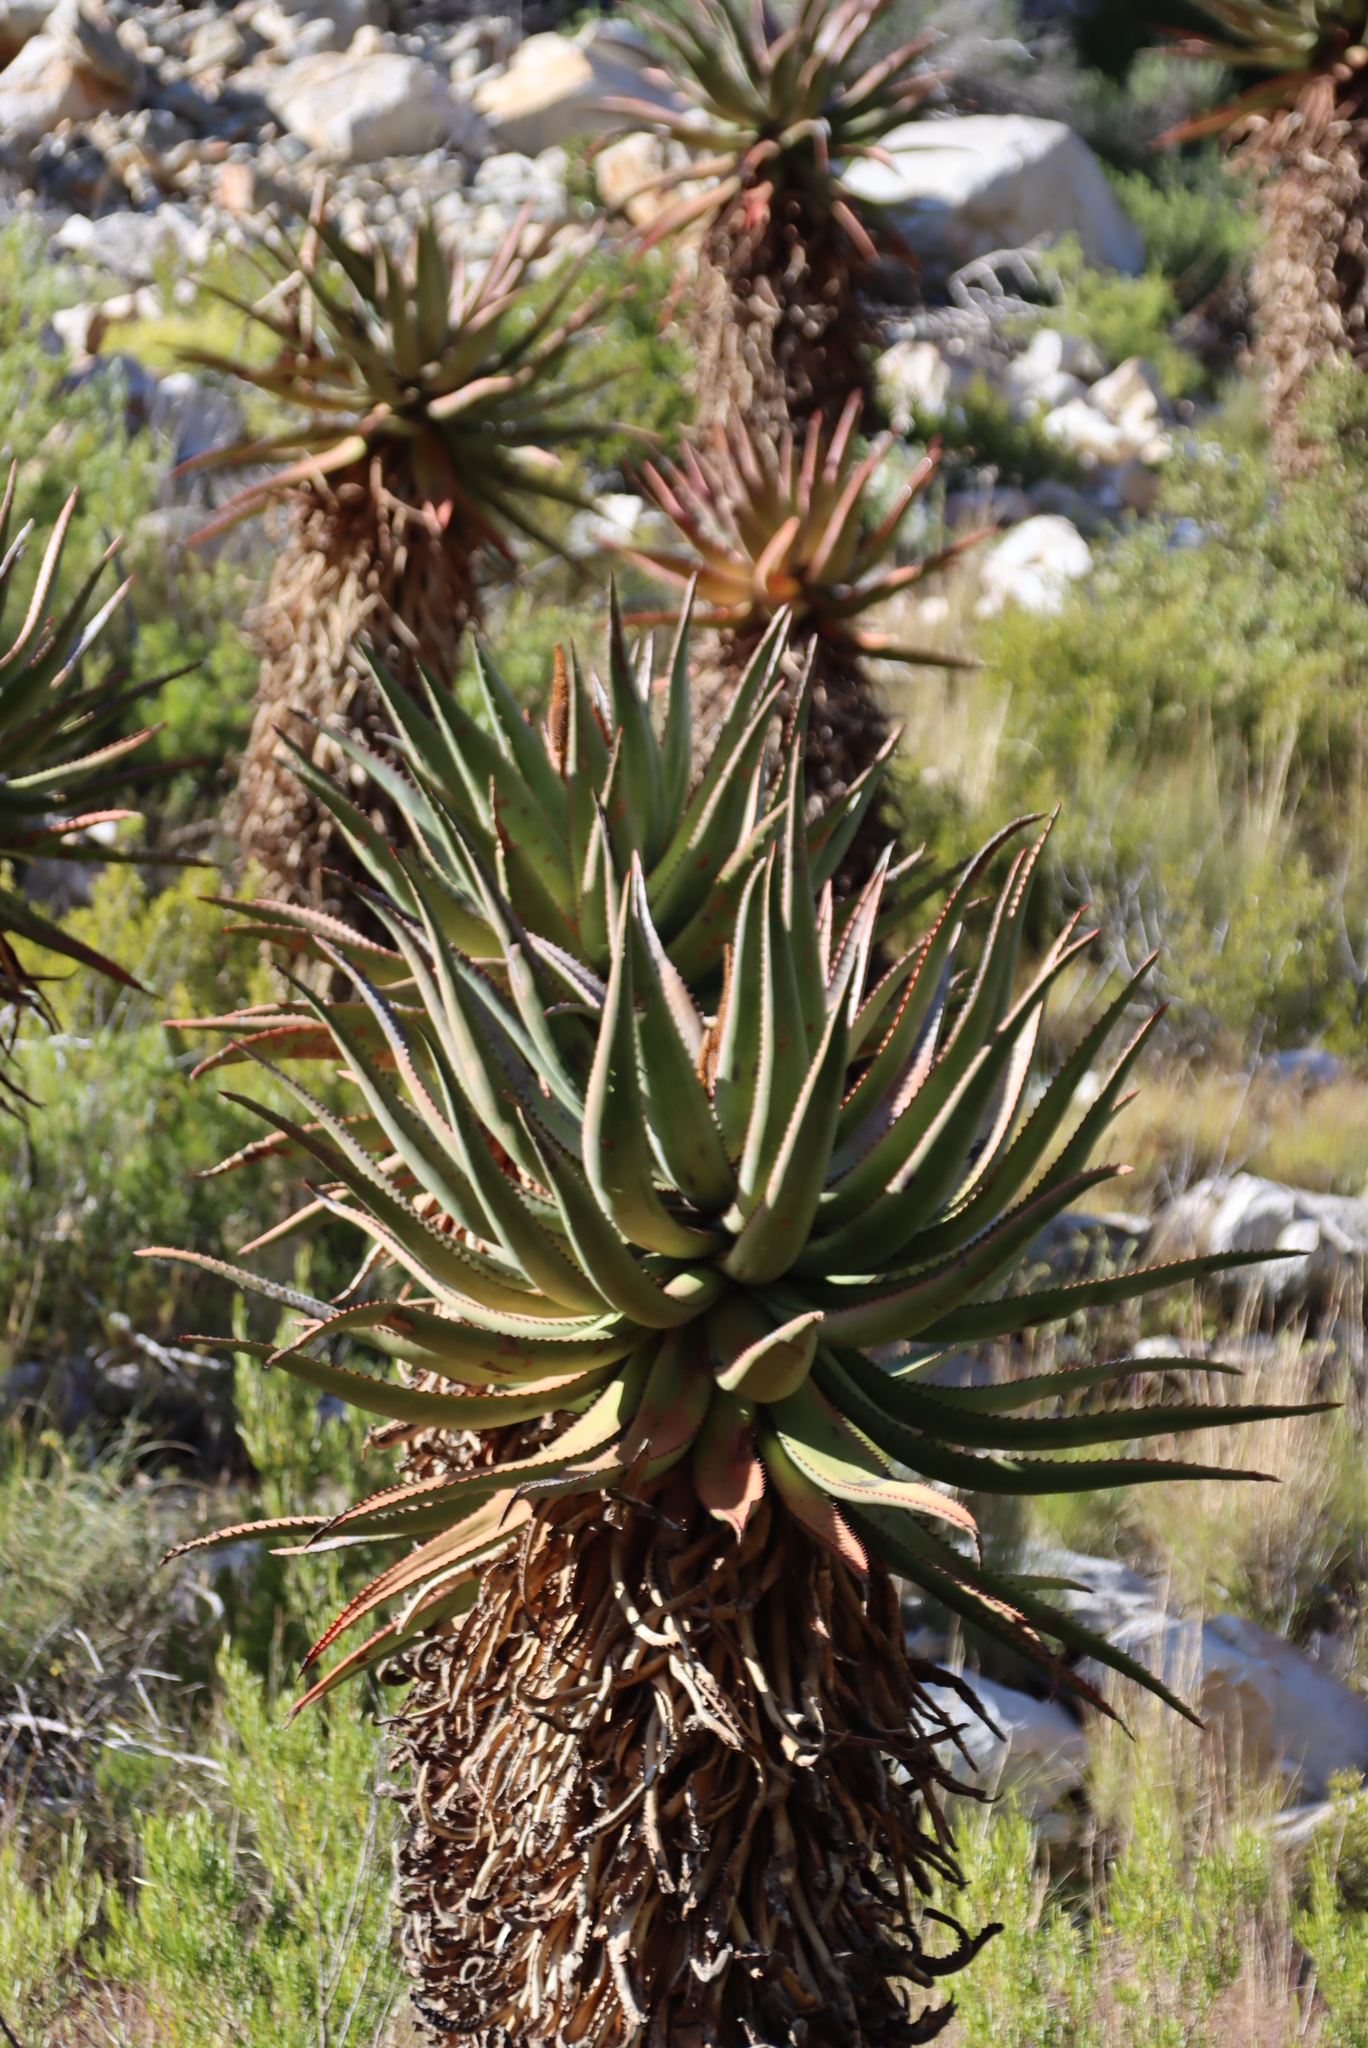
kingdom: Plantae
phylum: Tracheophyta
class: Liliopsida
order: Asparagales
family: Asphodelaceae
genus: Aloe
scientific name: Aloe ferox
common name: Bitter aloe
